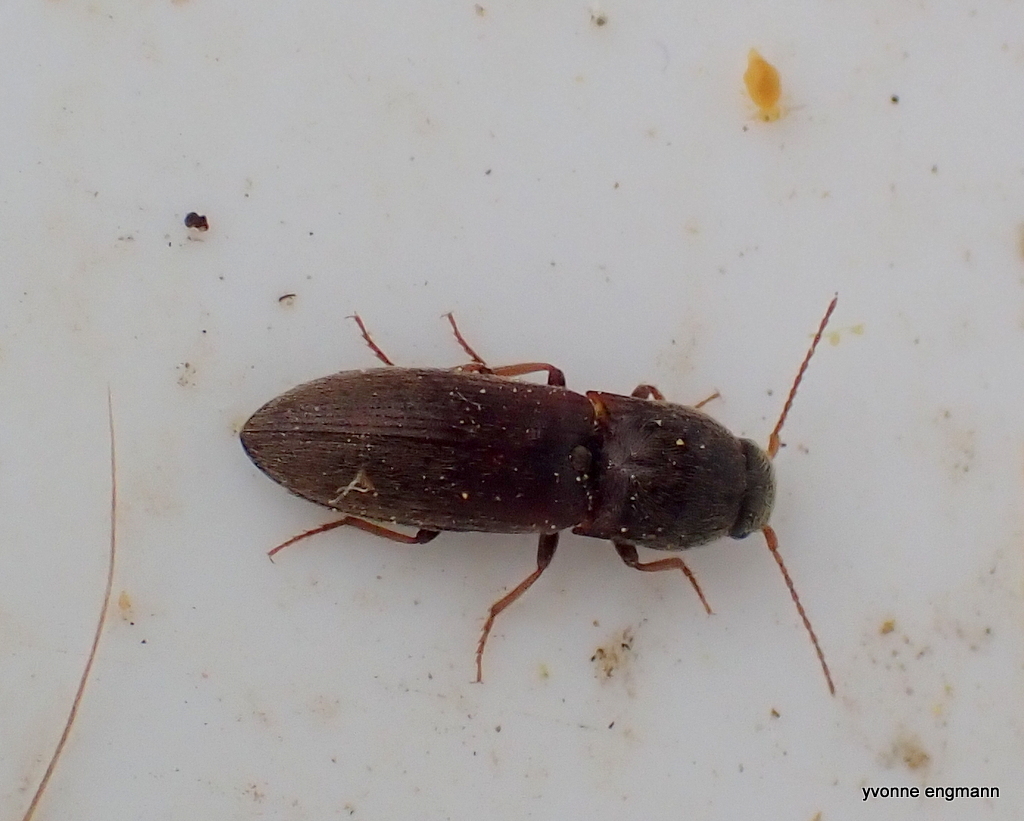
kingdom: Animalia
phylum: Arthropoda
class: Insecta
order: Coleoptera
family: Elateridae
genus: Agriotes
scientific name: Agriotes sputator
